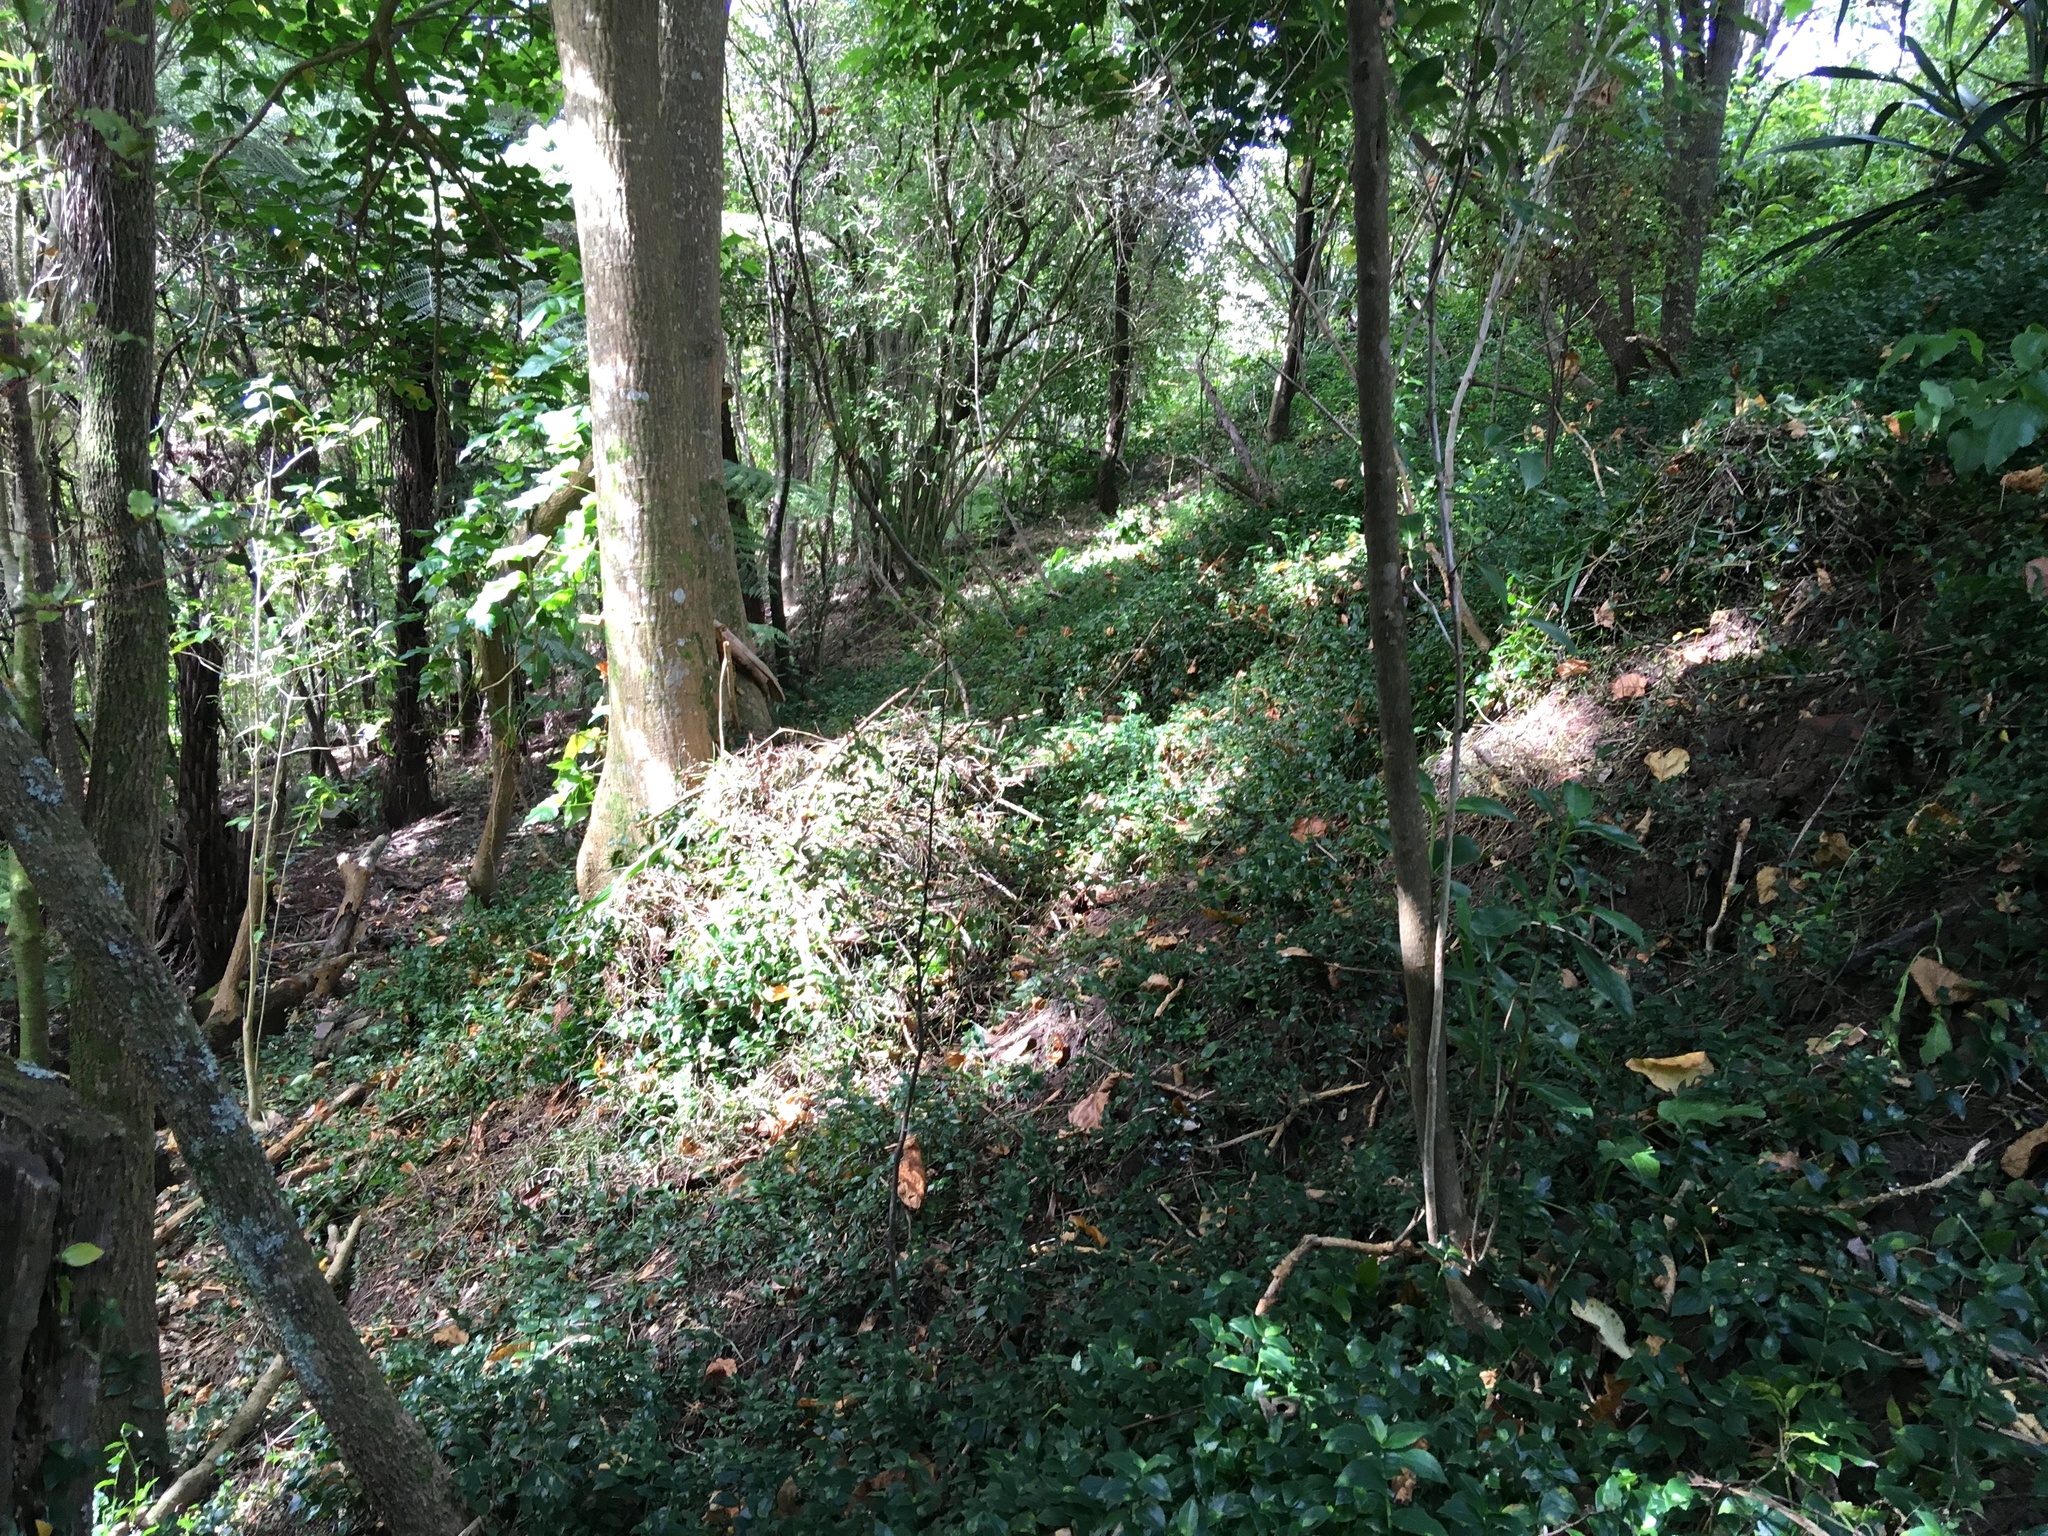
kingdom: Plantae
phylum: Tracheophyta
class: Liliopsida
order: Commelinales
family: Commelinaceae
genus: Tradescantia
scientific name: Tradescantia fluminensis
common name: Wandering-jew
